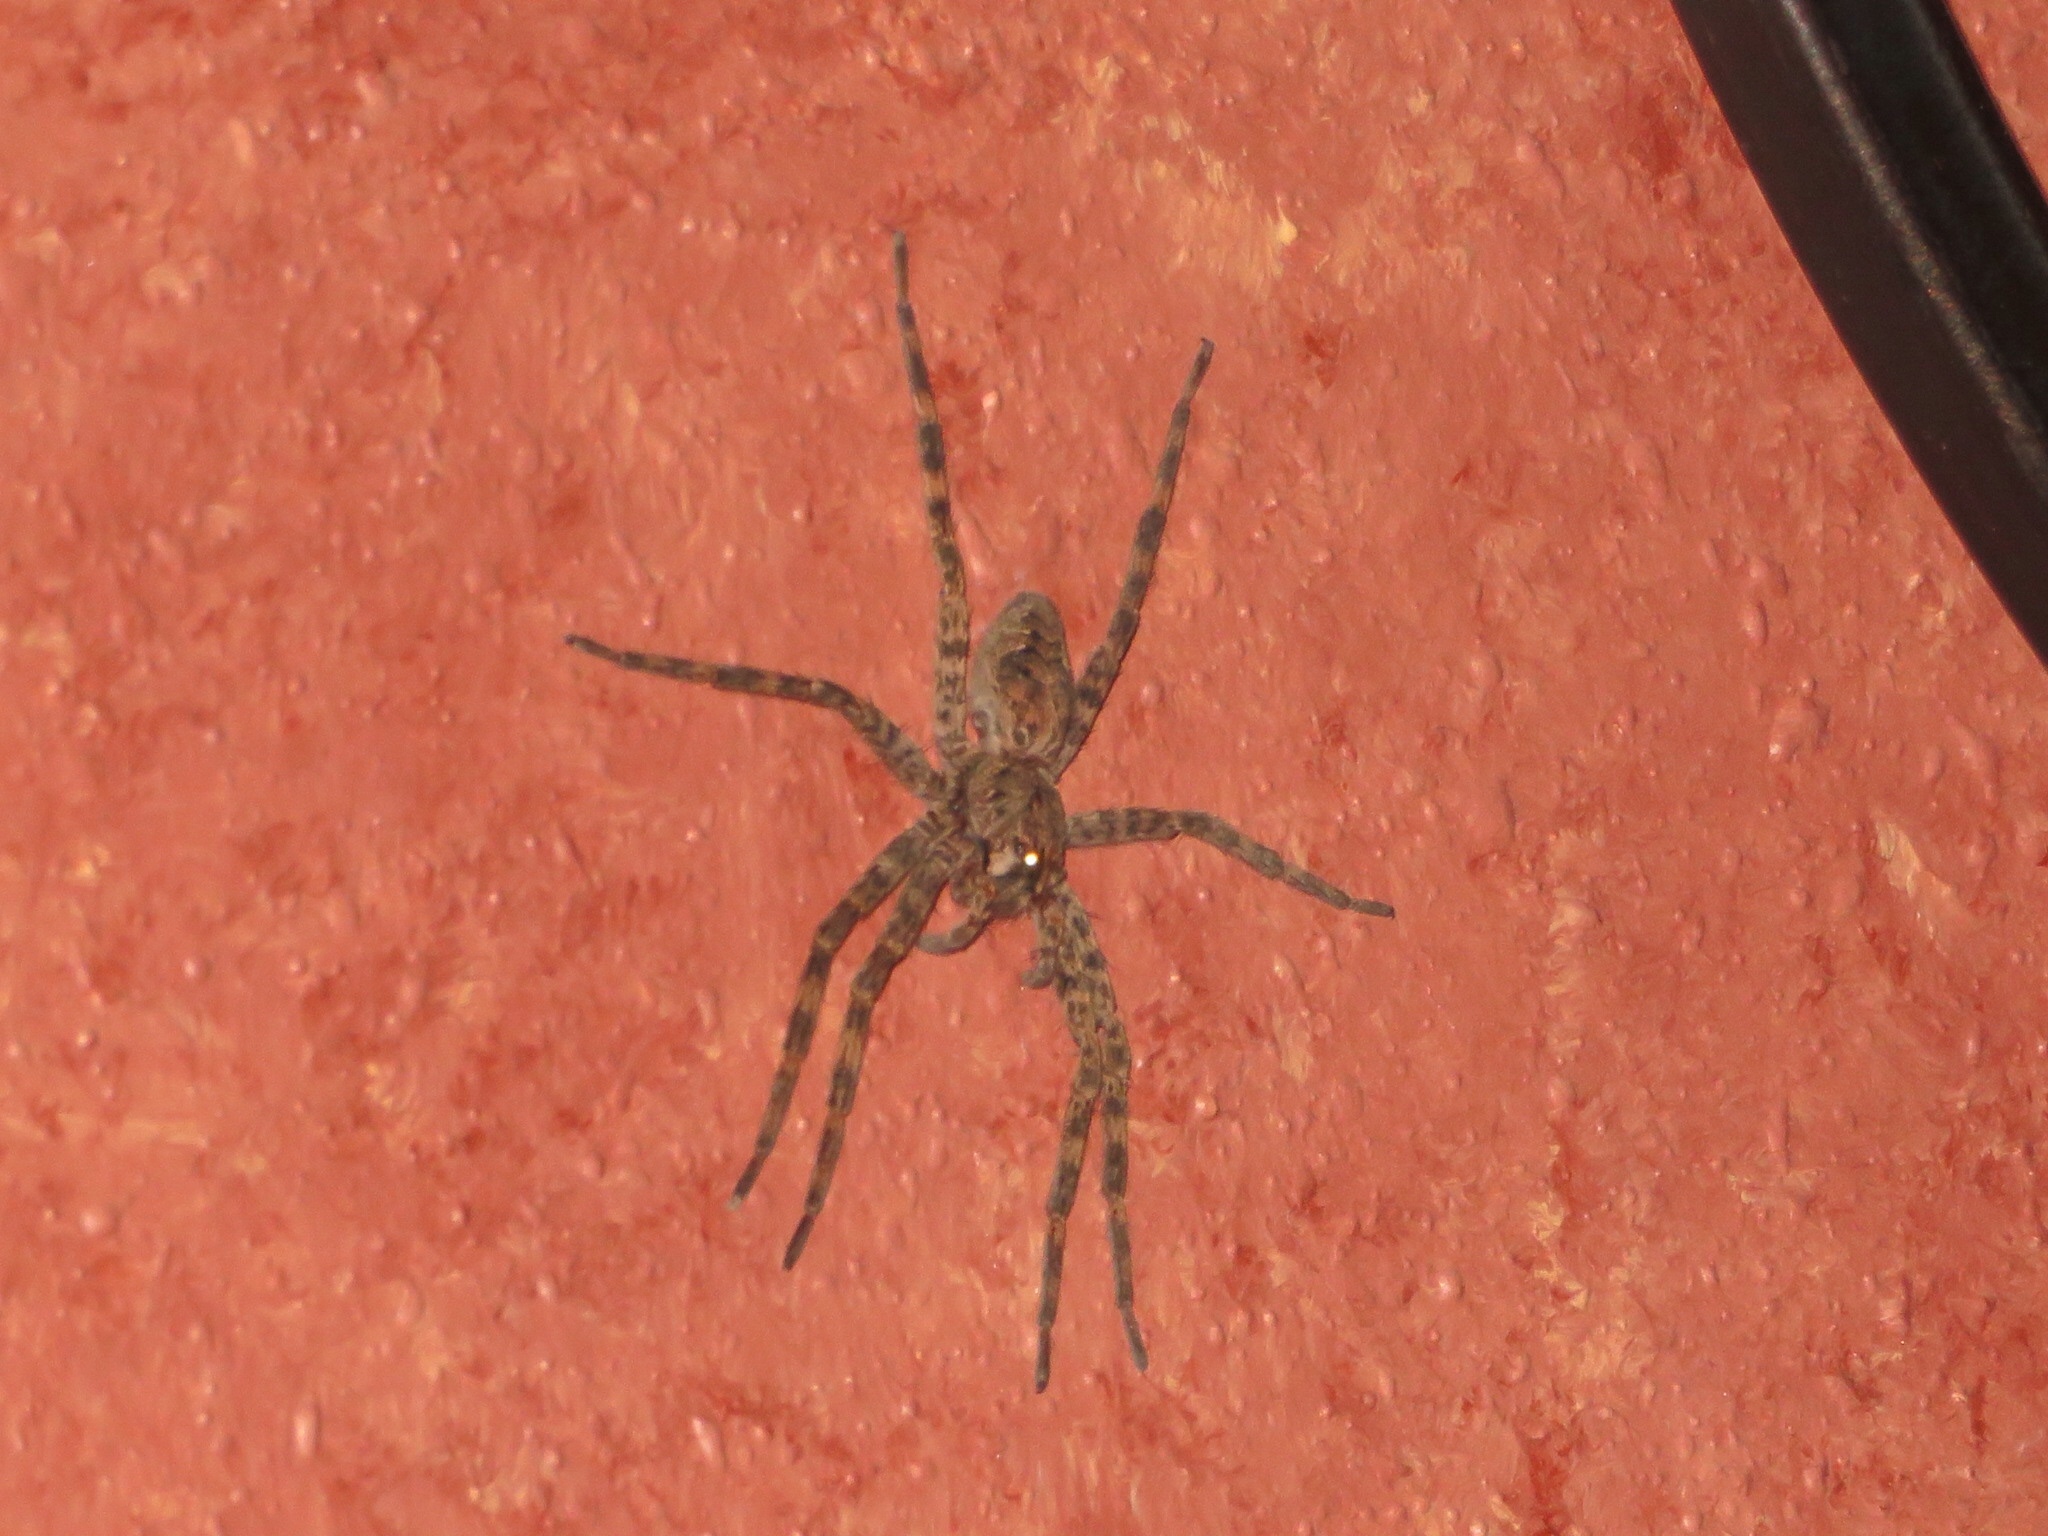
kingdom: Animalia
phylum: Arthropoda
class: Arachnida
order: Araneae
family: Pisauridae
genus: Dolomedes
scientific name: Dolomedes tenebrosus
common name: Dark fishing spider
